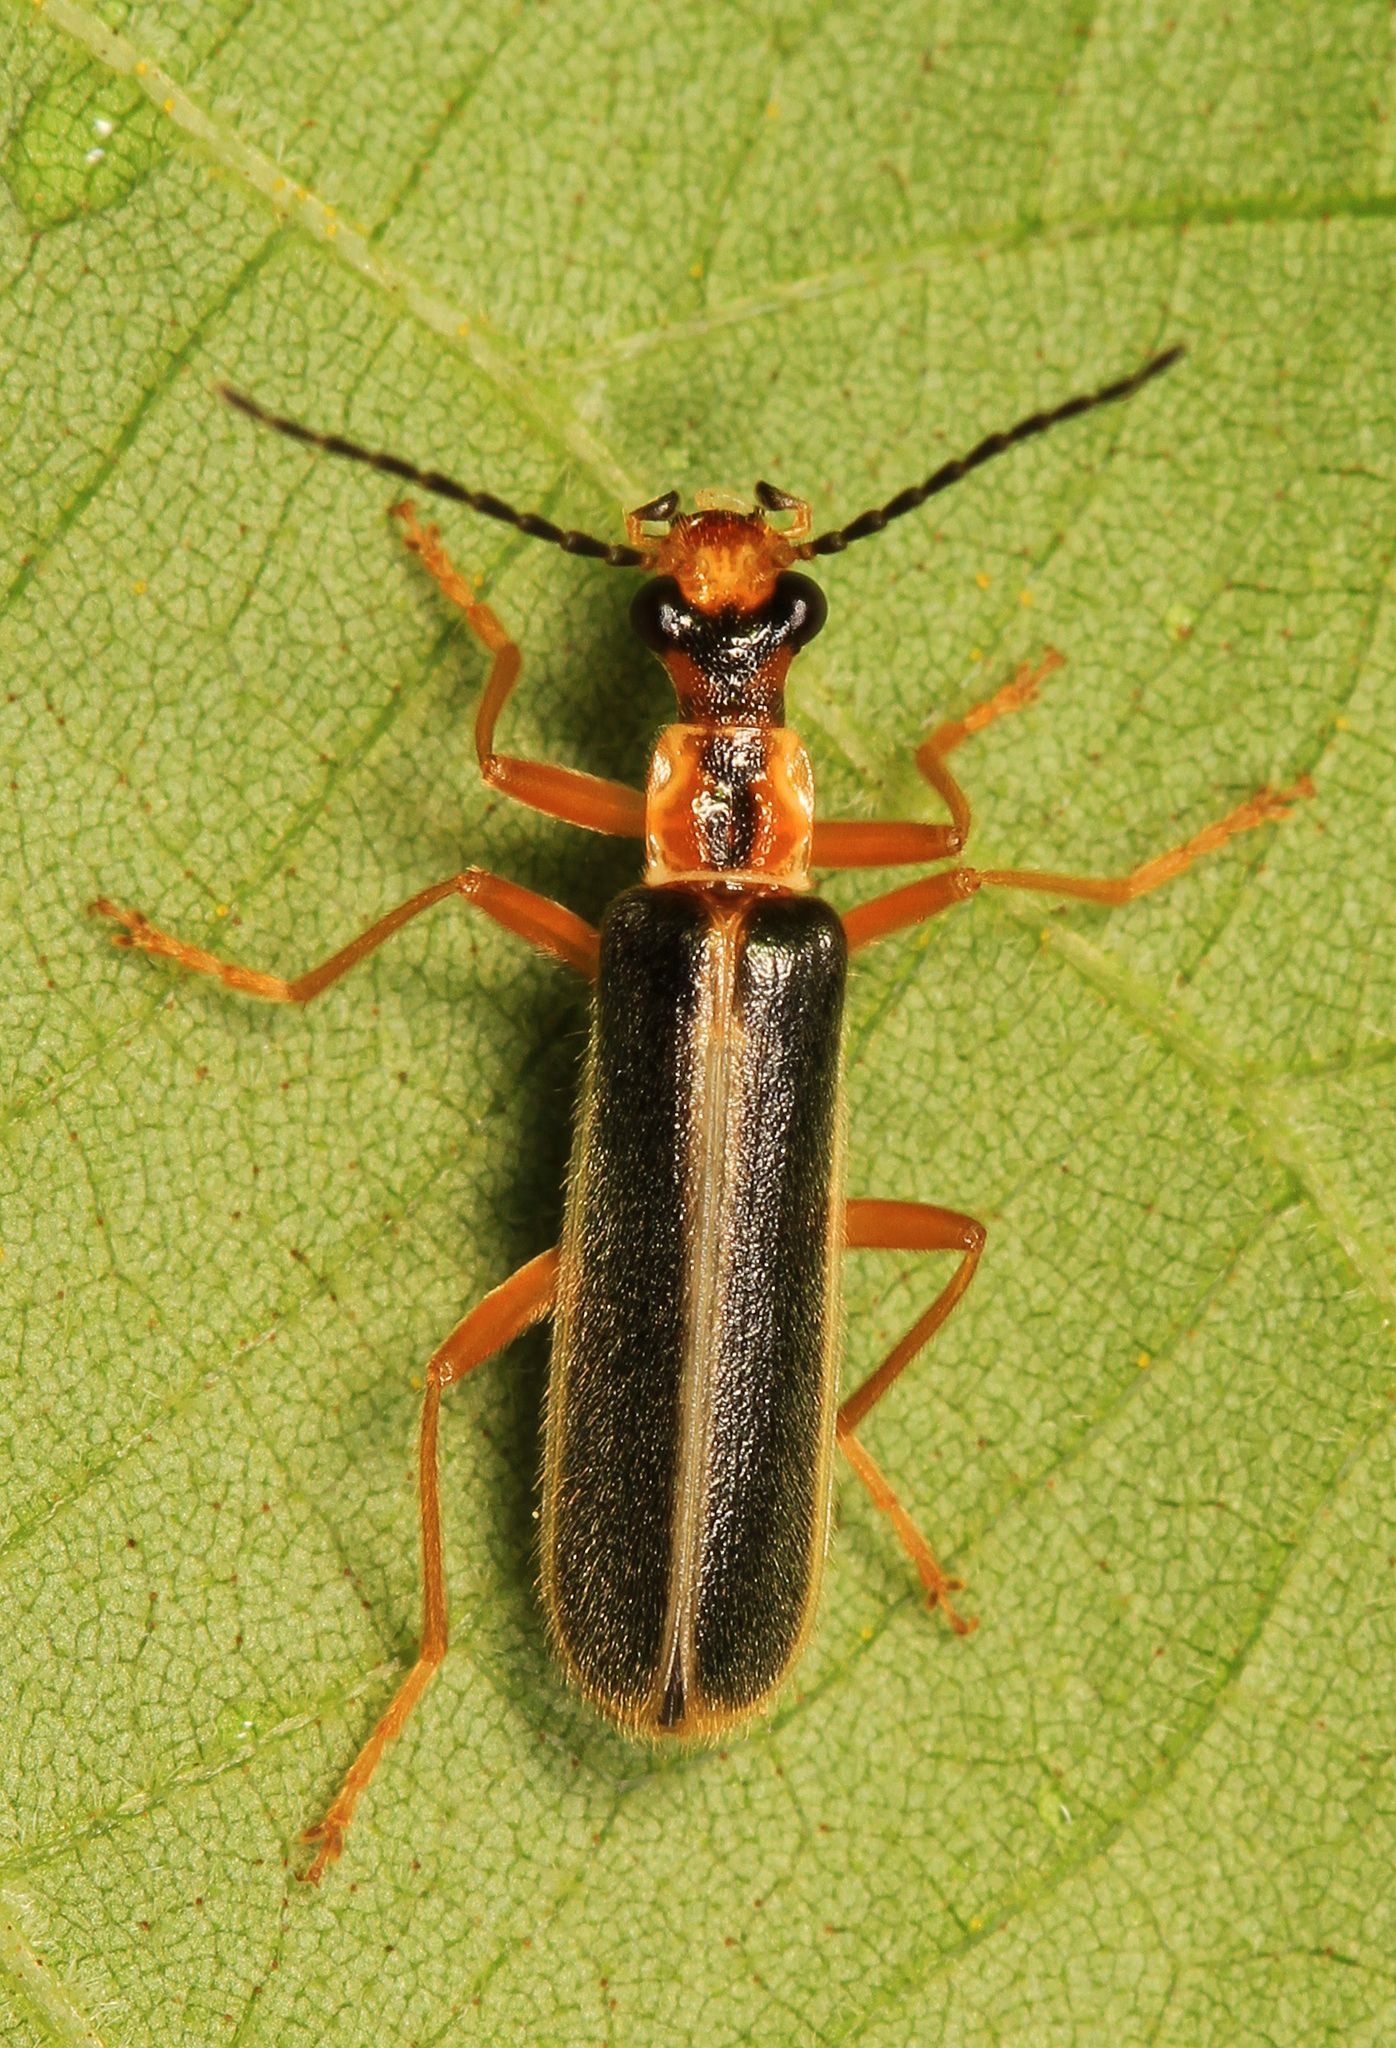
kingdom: Animalia
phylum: Arthropoda
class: Insecta
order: Coleoptera
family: Cantharidae
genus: Podabrus
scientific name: Podabrus dreisbachi
